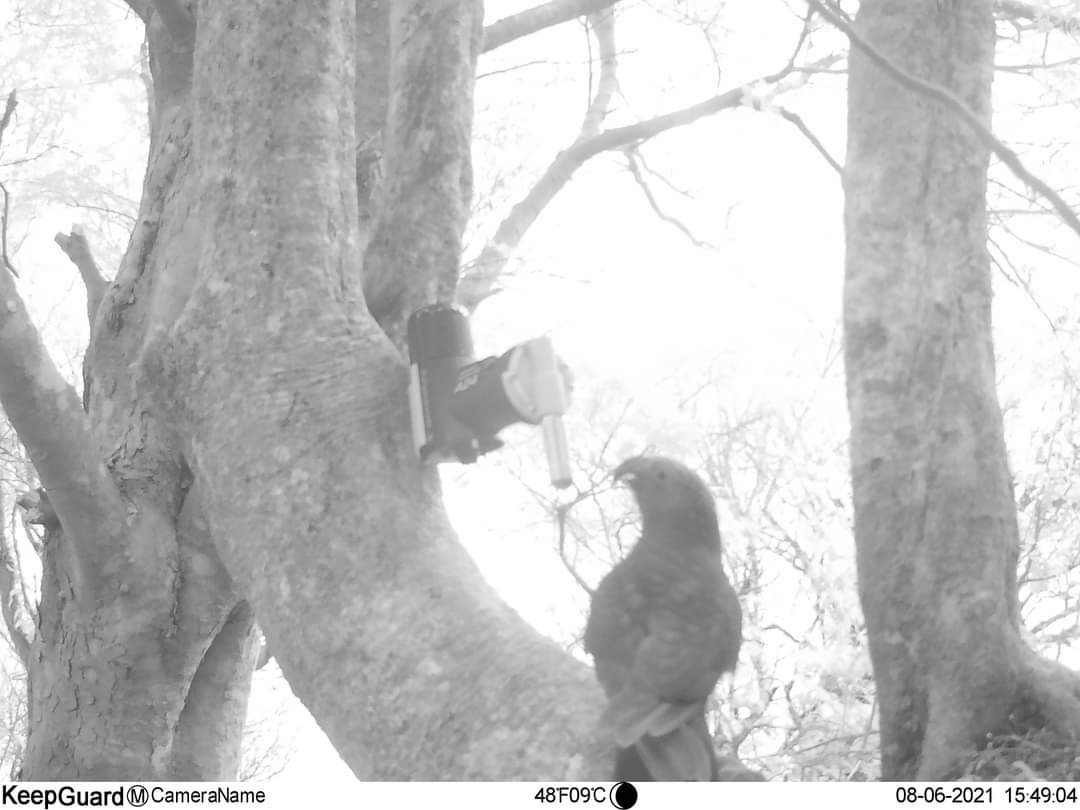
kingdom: Animalia
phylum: Chordata
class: Aves
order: Psittaciformes
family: Psittacidae
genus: Nestor
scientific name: Nestor meridionalis
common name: New zealand kaka
